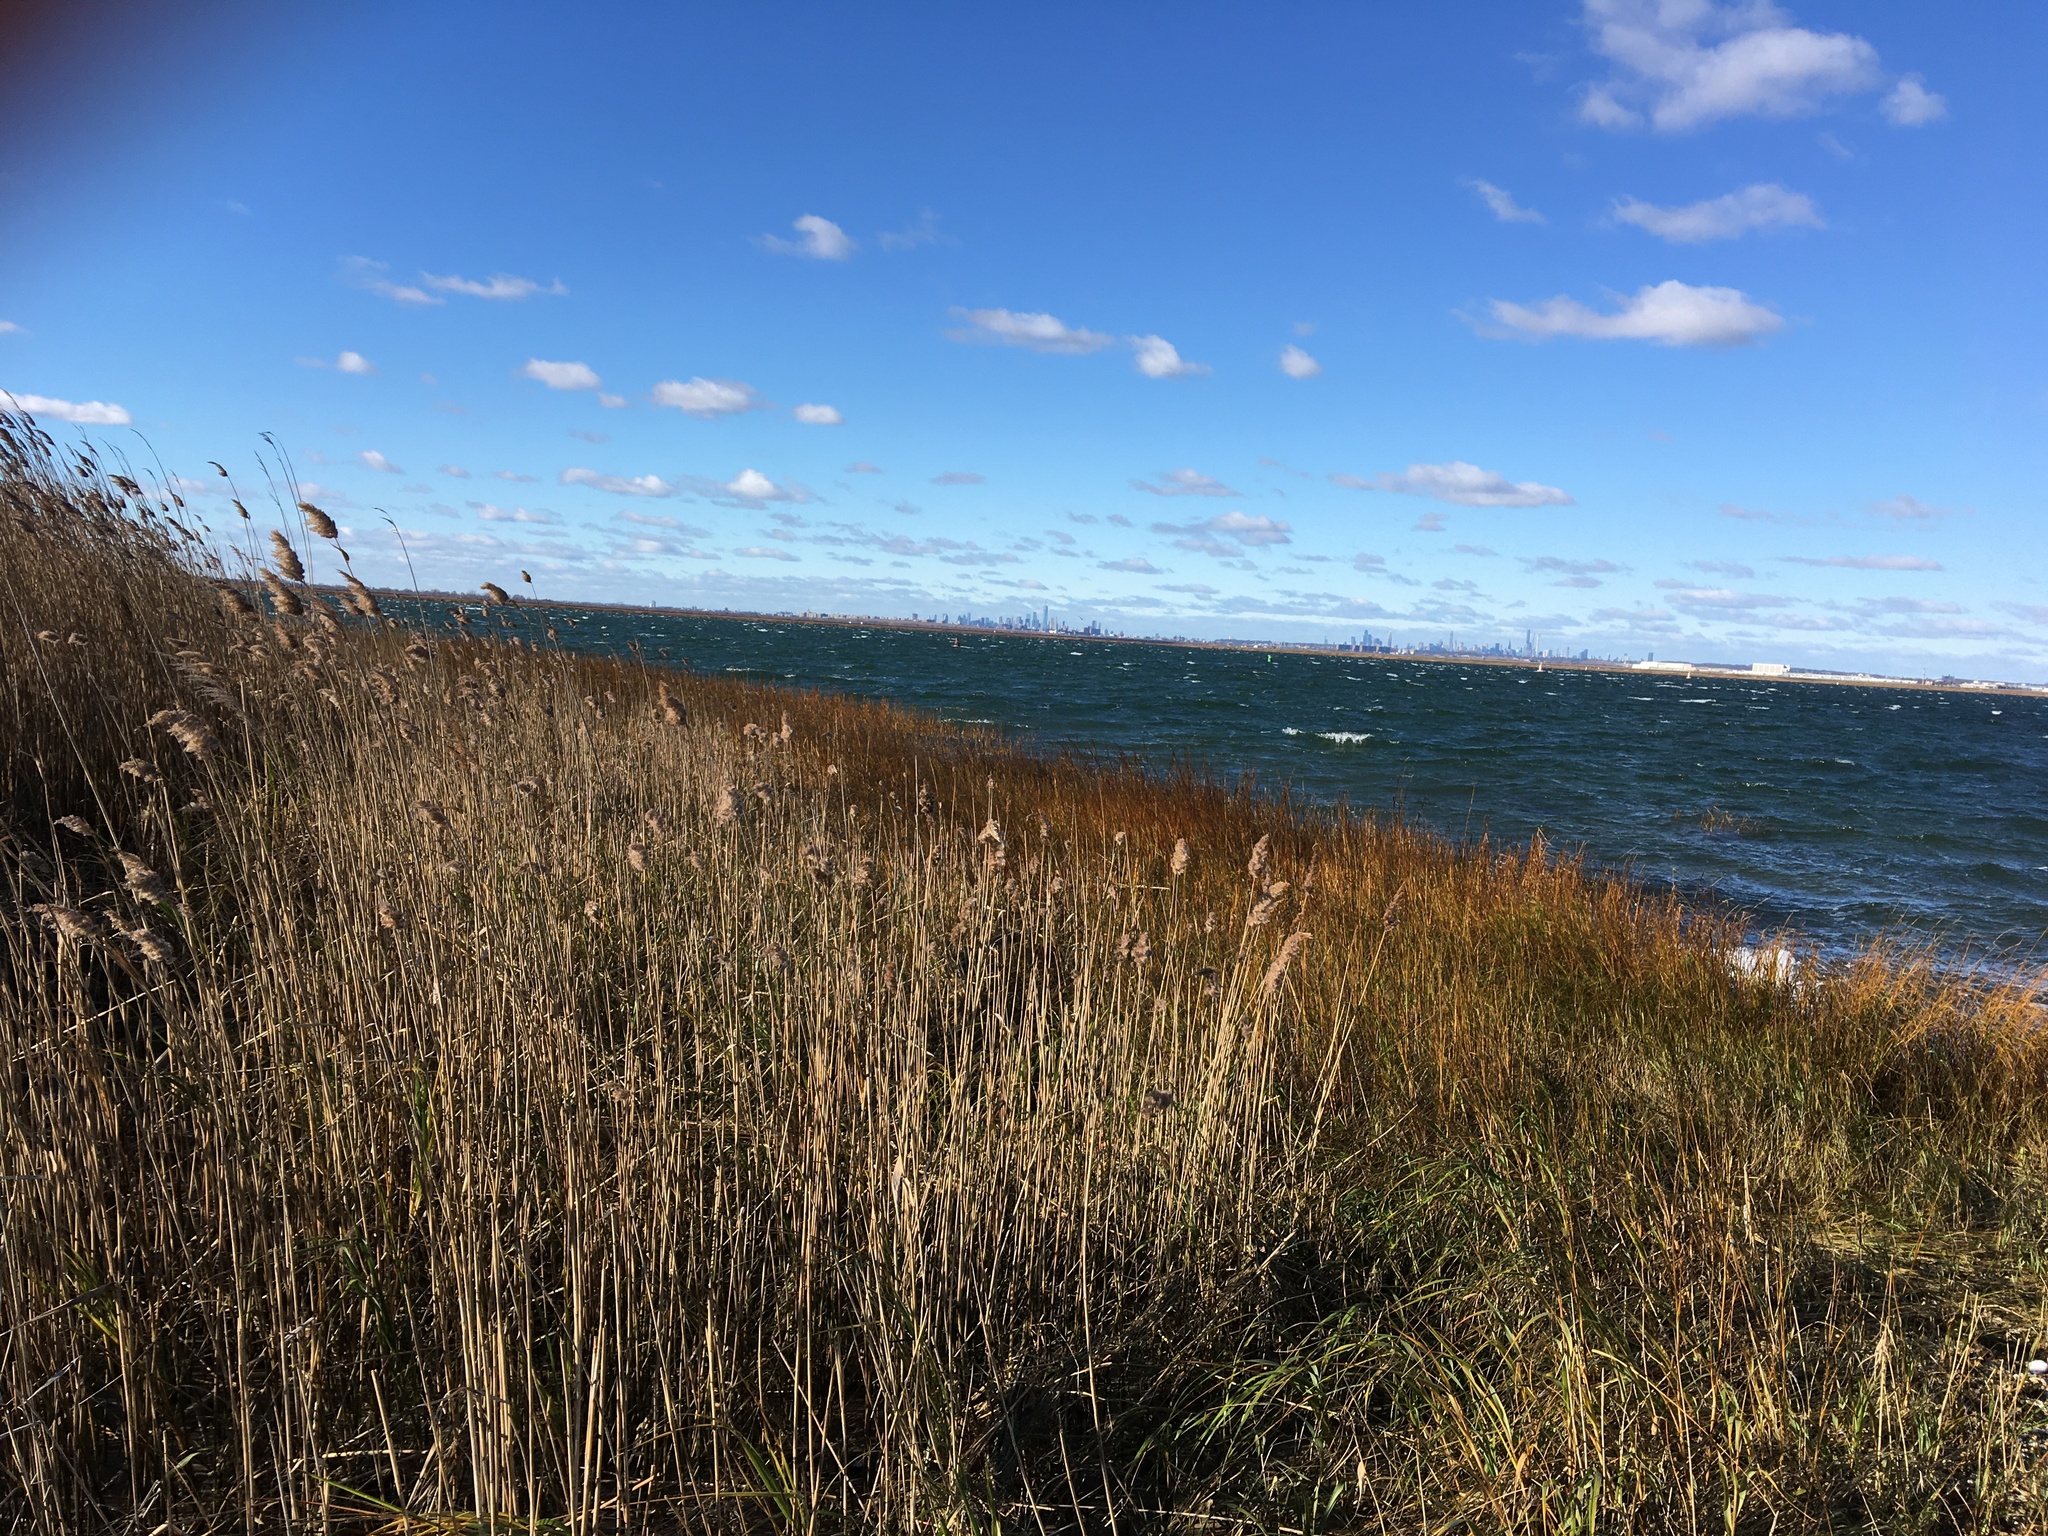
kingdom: Plantae
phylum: Tracheophyta
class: Liliopsida
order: Poales
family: Poaceae
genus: Phragmites
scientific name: Phragmites australis
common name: Common reed
